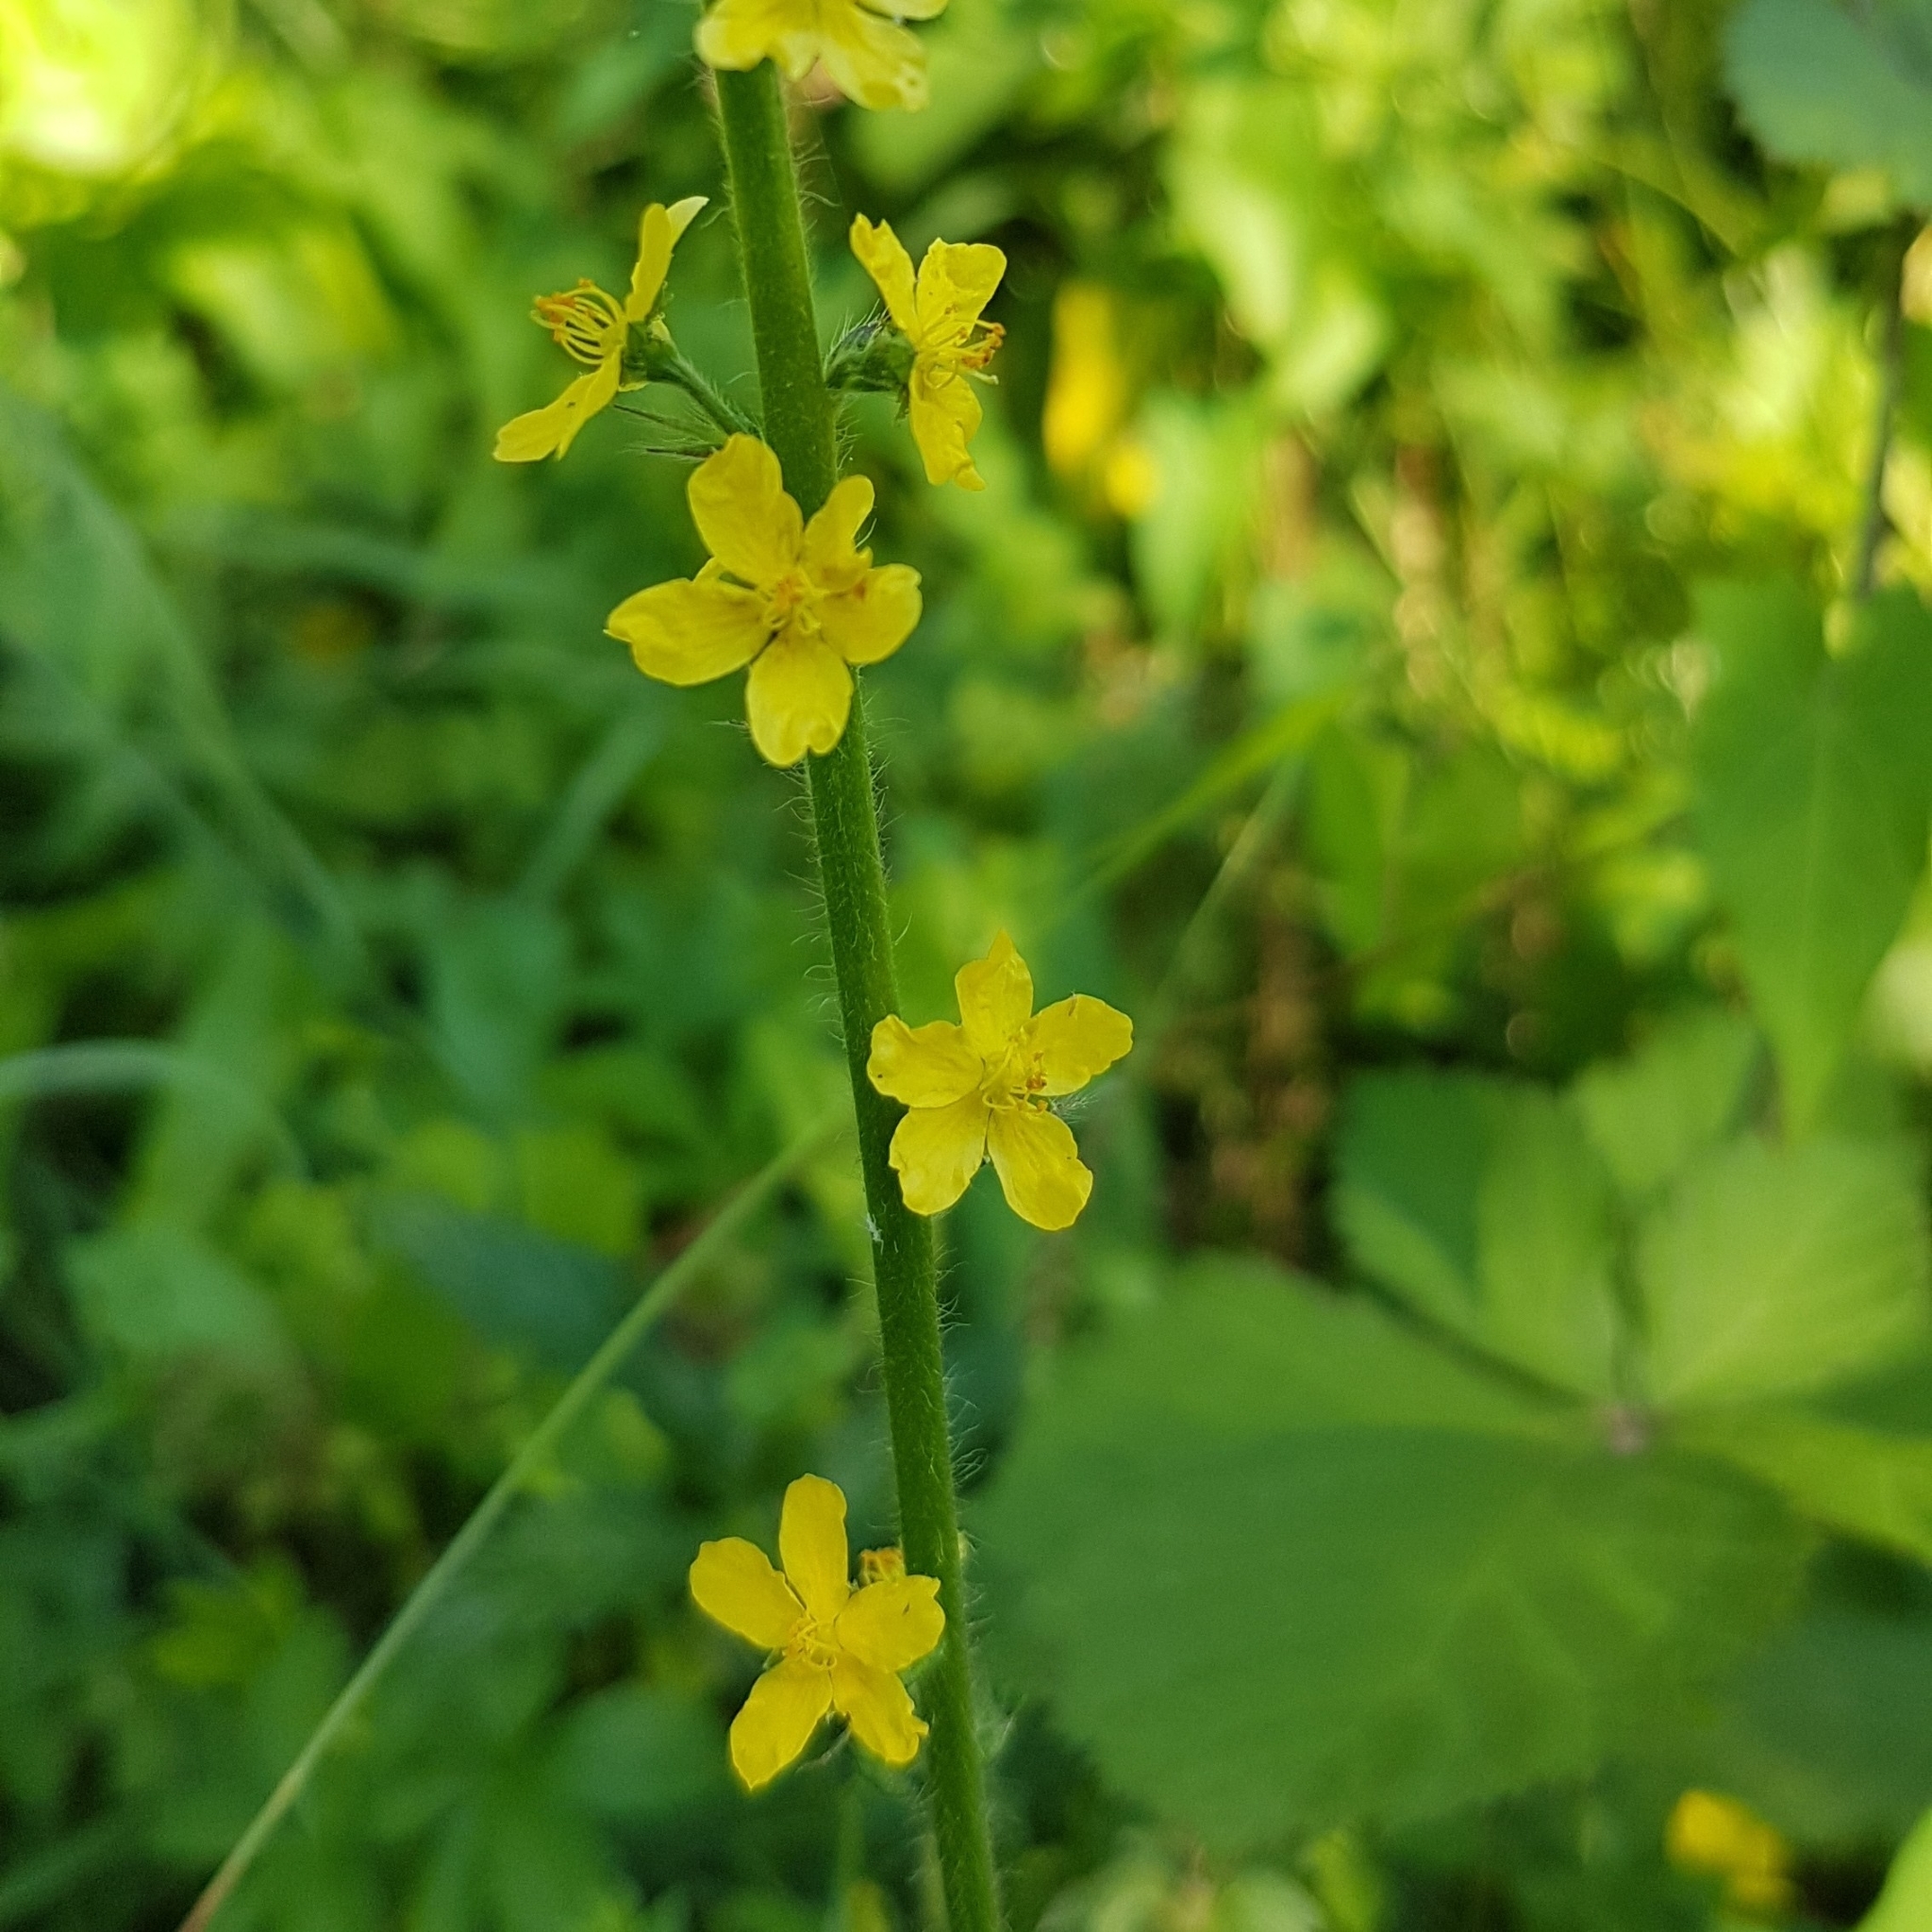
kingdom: Plantae
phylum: Tracheophyta
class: Magnoliopsida
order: Rosales
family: Rosaceae
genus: Agrimonia
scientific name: Agrimonia eupatoria
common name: Agrimony
